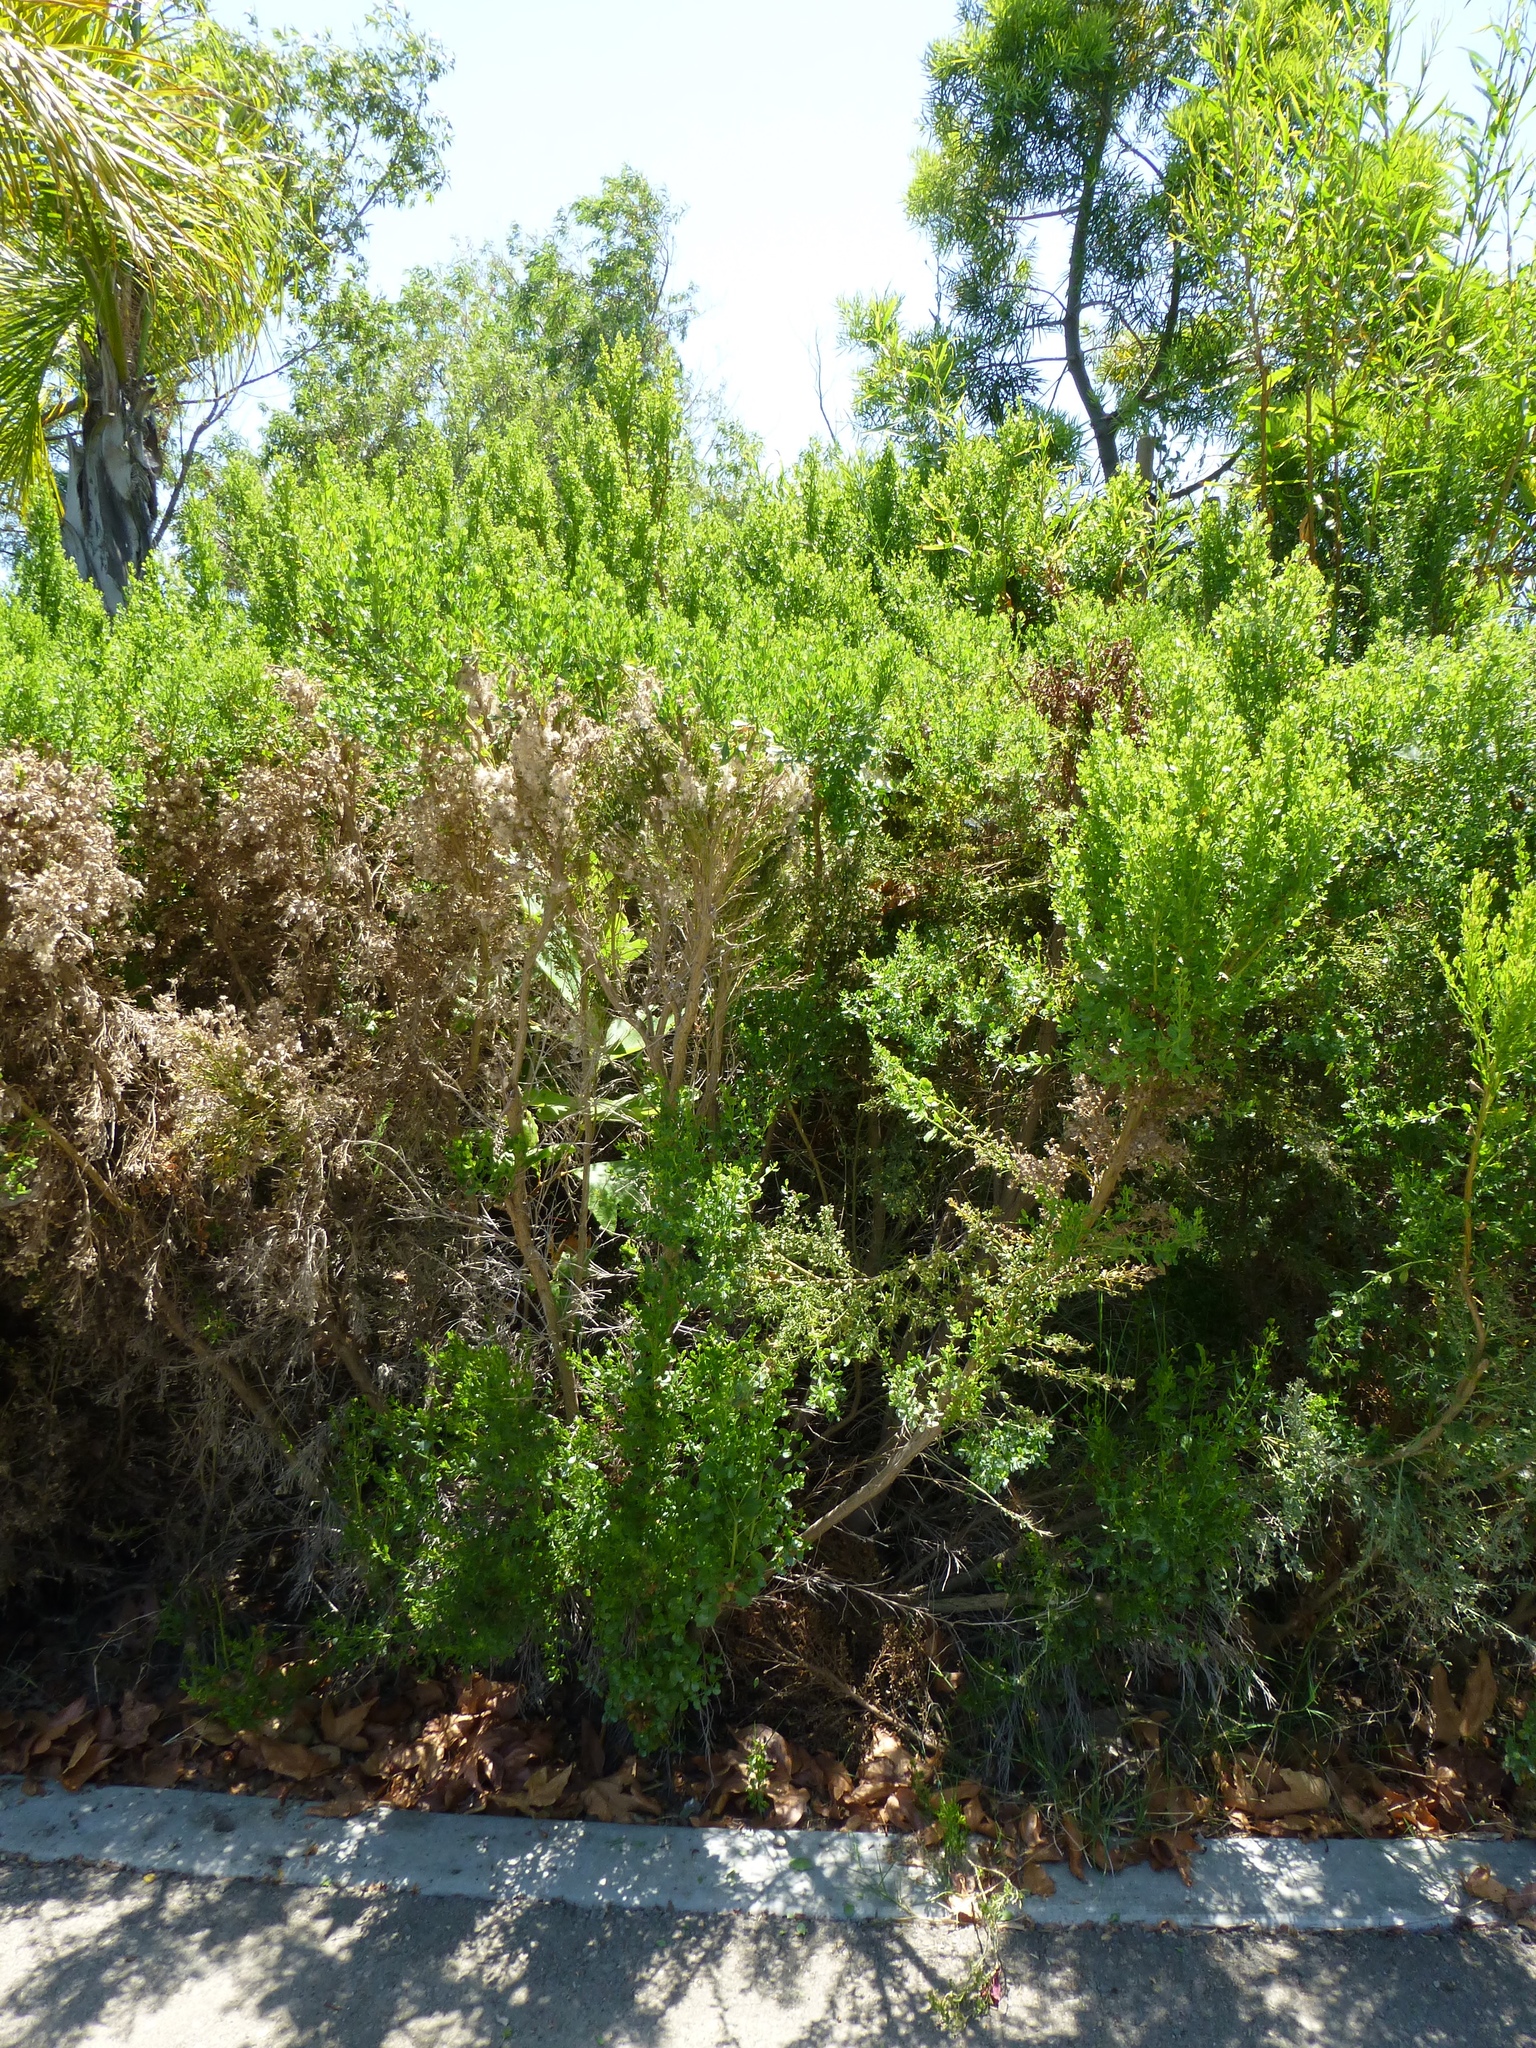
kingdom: Plantae
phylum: Tracheophyta
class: Magnoliopsida
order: Asterales
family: Asteraceae
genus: Baccharis
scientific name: Baccharis pilularis
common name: Coyotebrush
